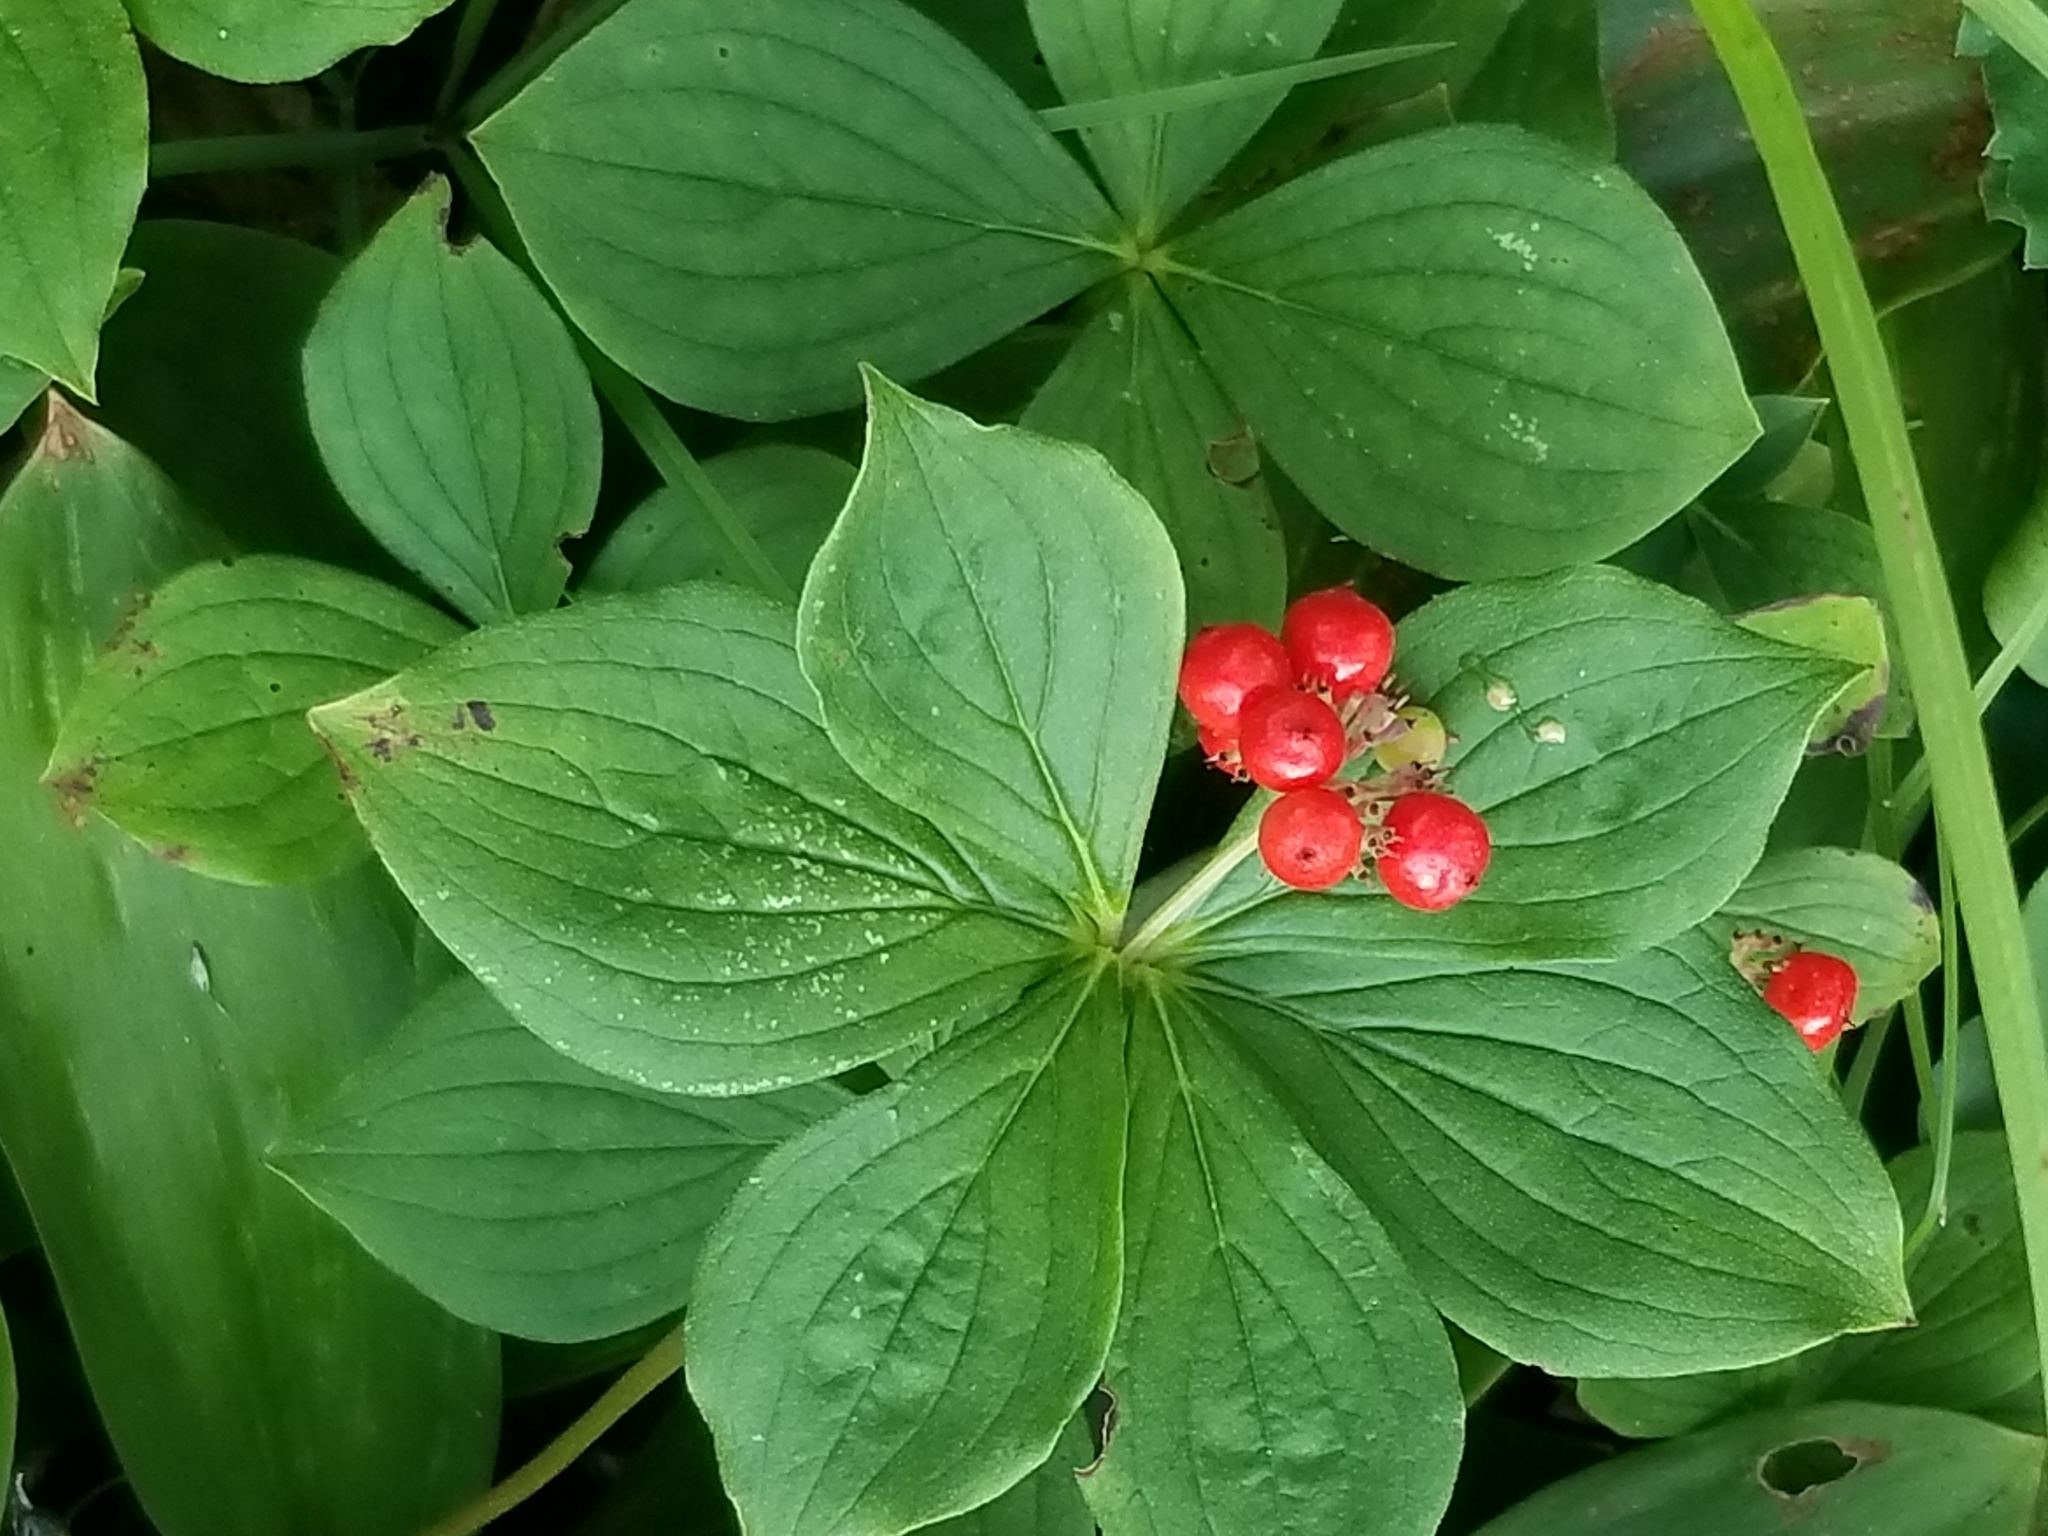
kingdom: Plantae
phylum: Tracheophyta
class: Magnoliopsida
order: Cornales
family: Cornaceae
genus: Cornus
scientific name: Cornus canadensis
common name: Creeping dogwood
